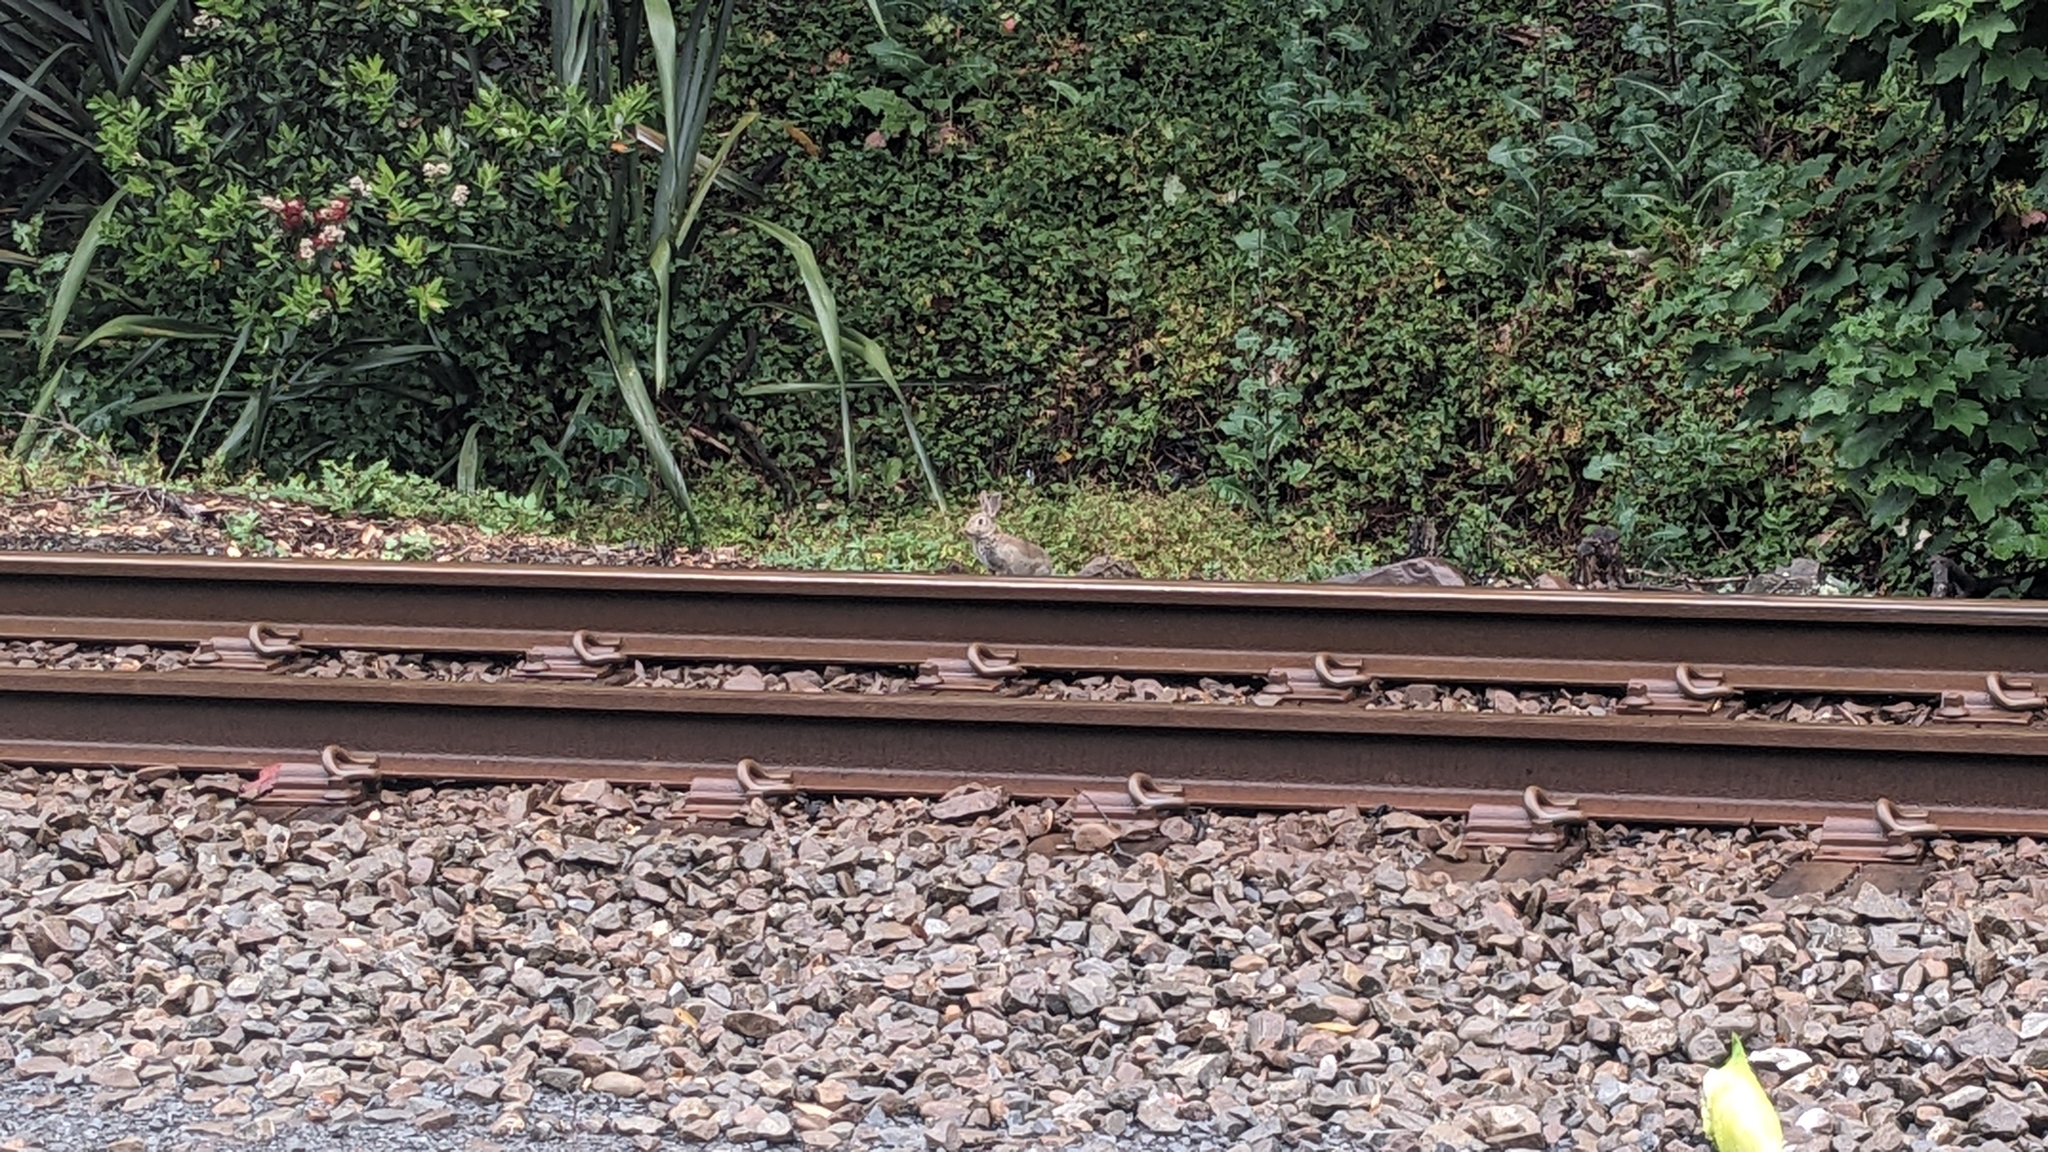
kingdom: Animalia
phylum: Chordata
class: Mammalia
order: Lagomorpha
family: Leporidae
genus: Oryctolagus
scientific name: Oryctolagus cuniculus
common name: European rabbit
